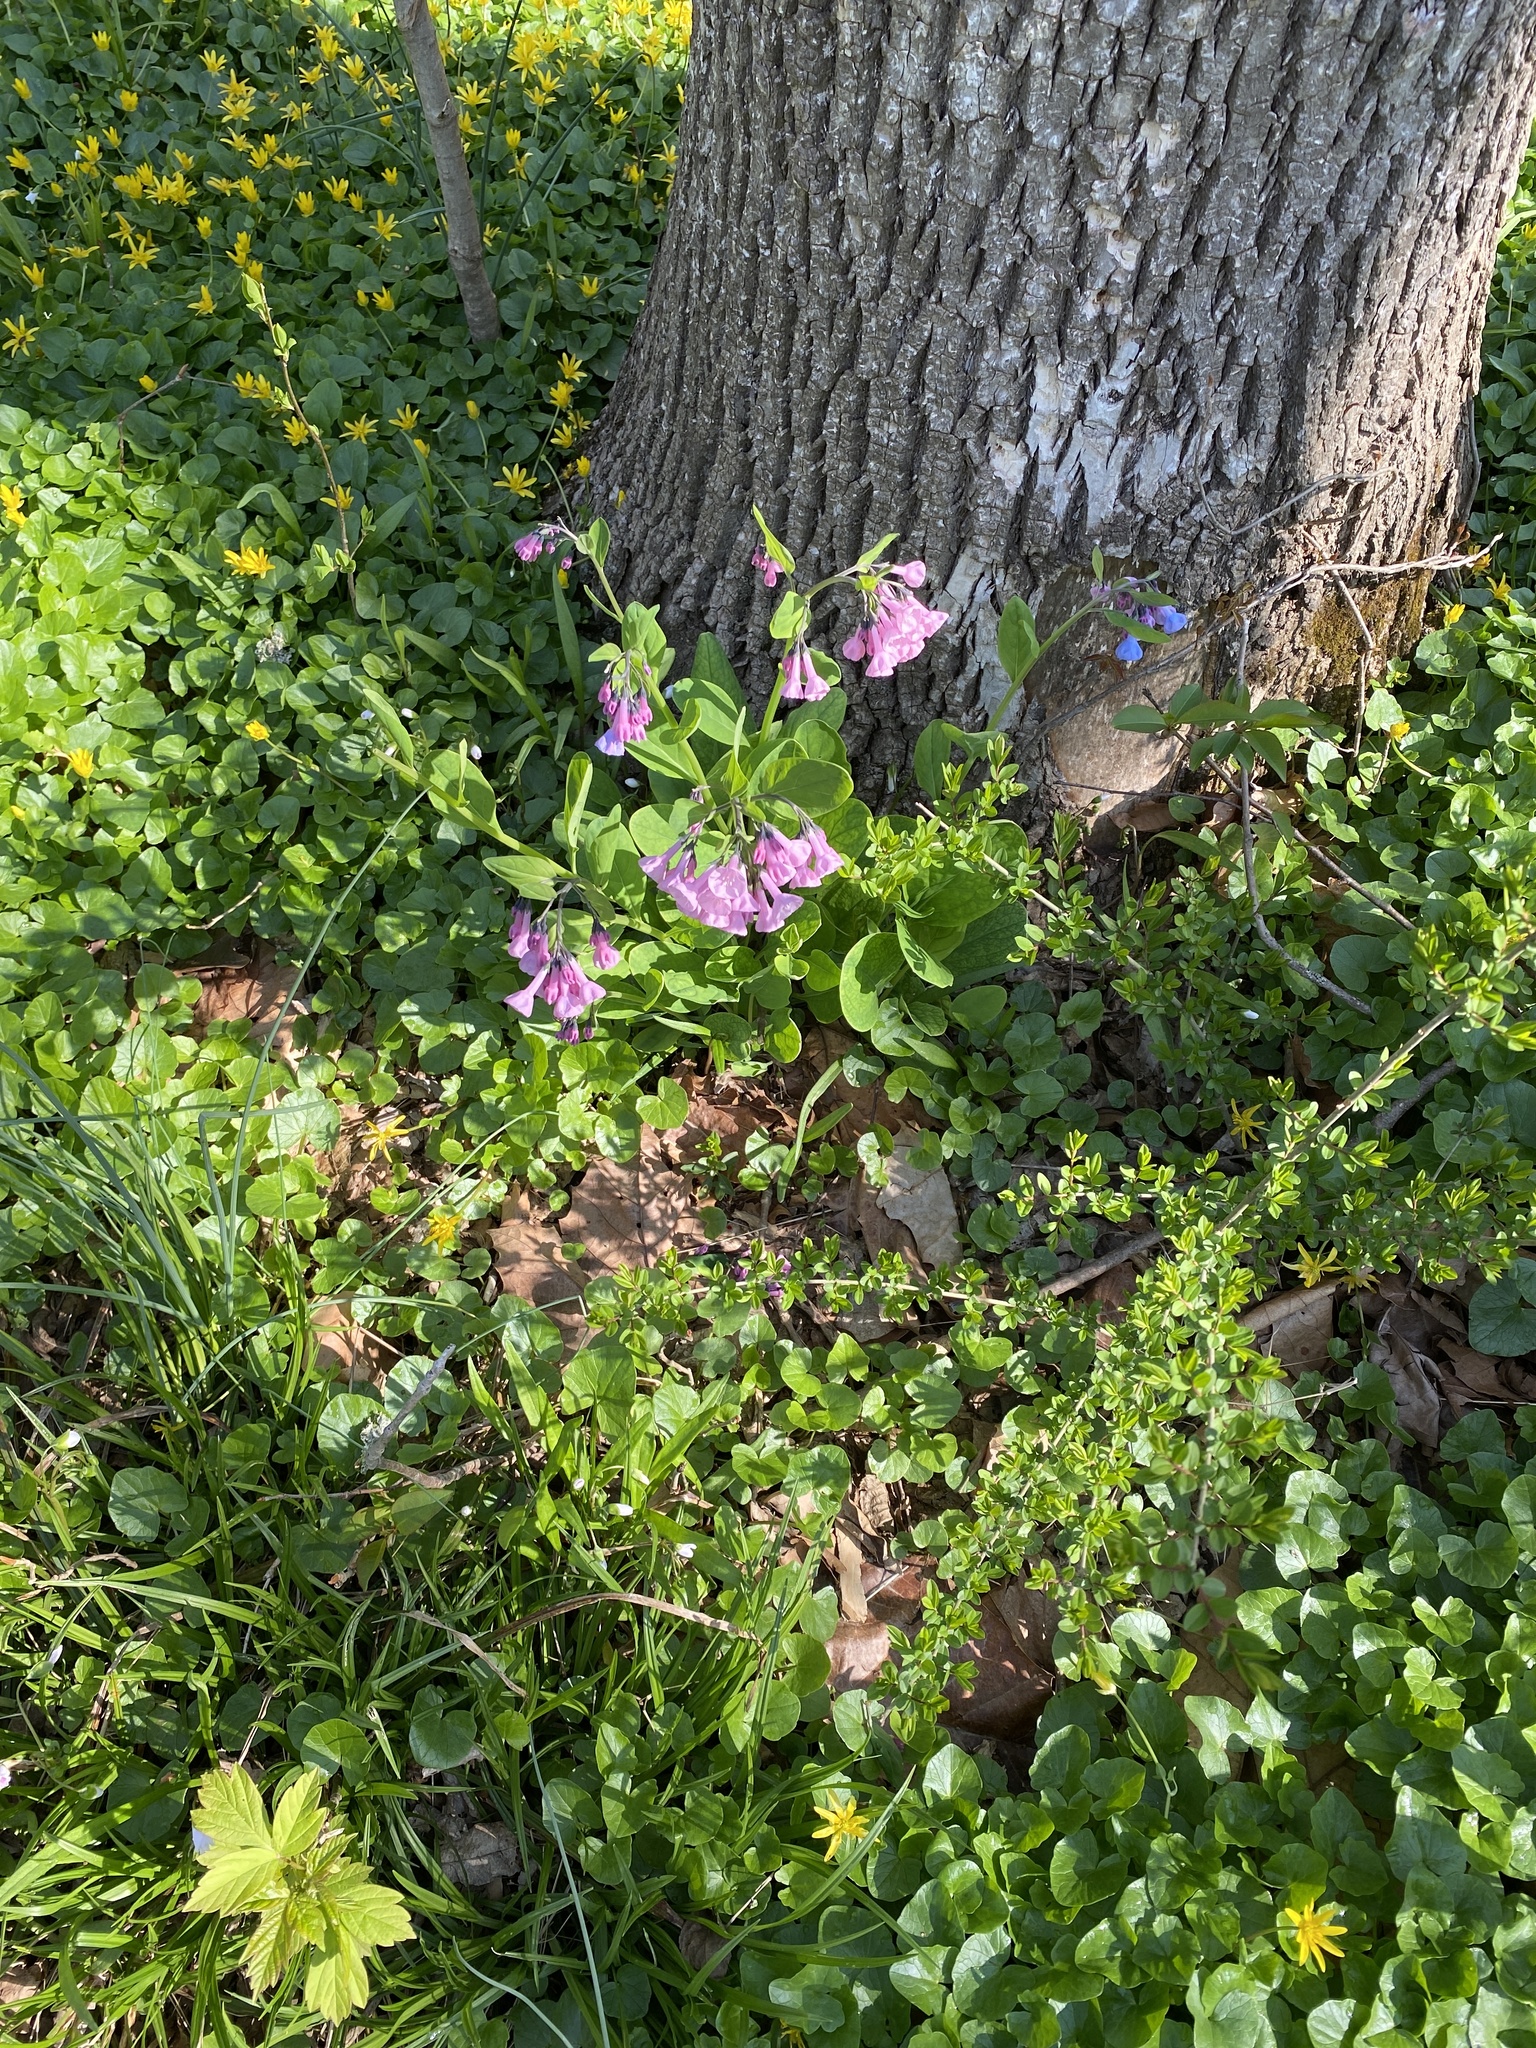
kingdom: Plantae
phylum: Tracheophyta
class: Magnoliopsida
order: Boraginales
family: Boraginaceae
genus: Mertensia
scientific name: Mertensia virginica
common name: Virginia bluebells
